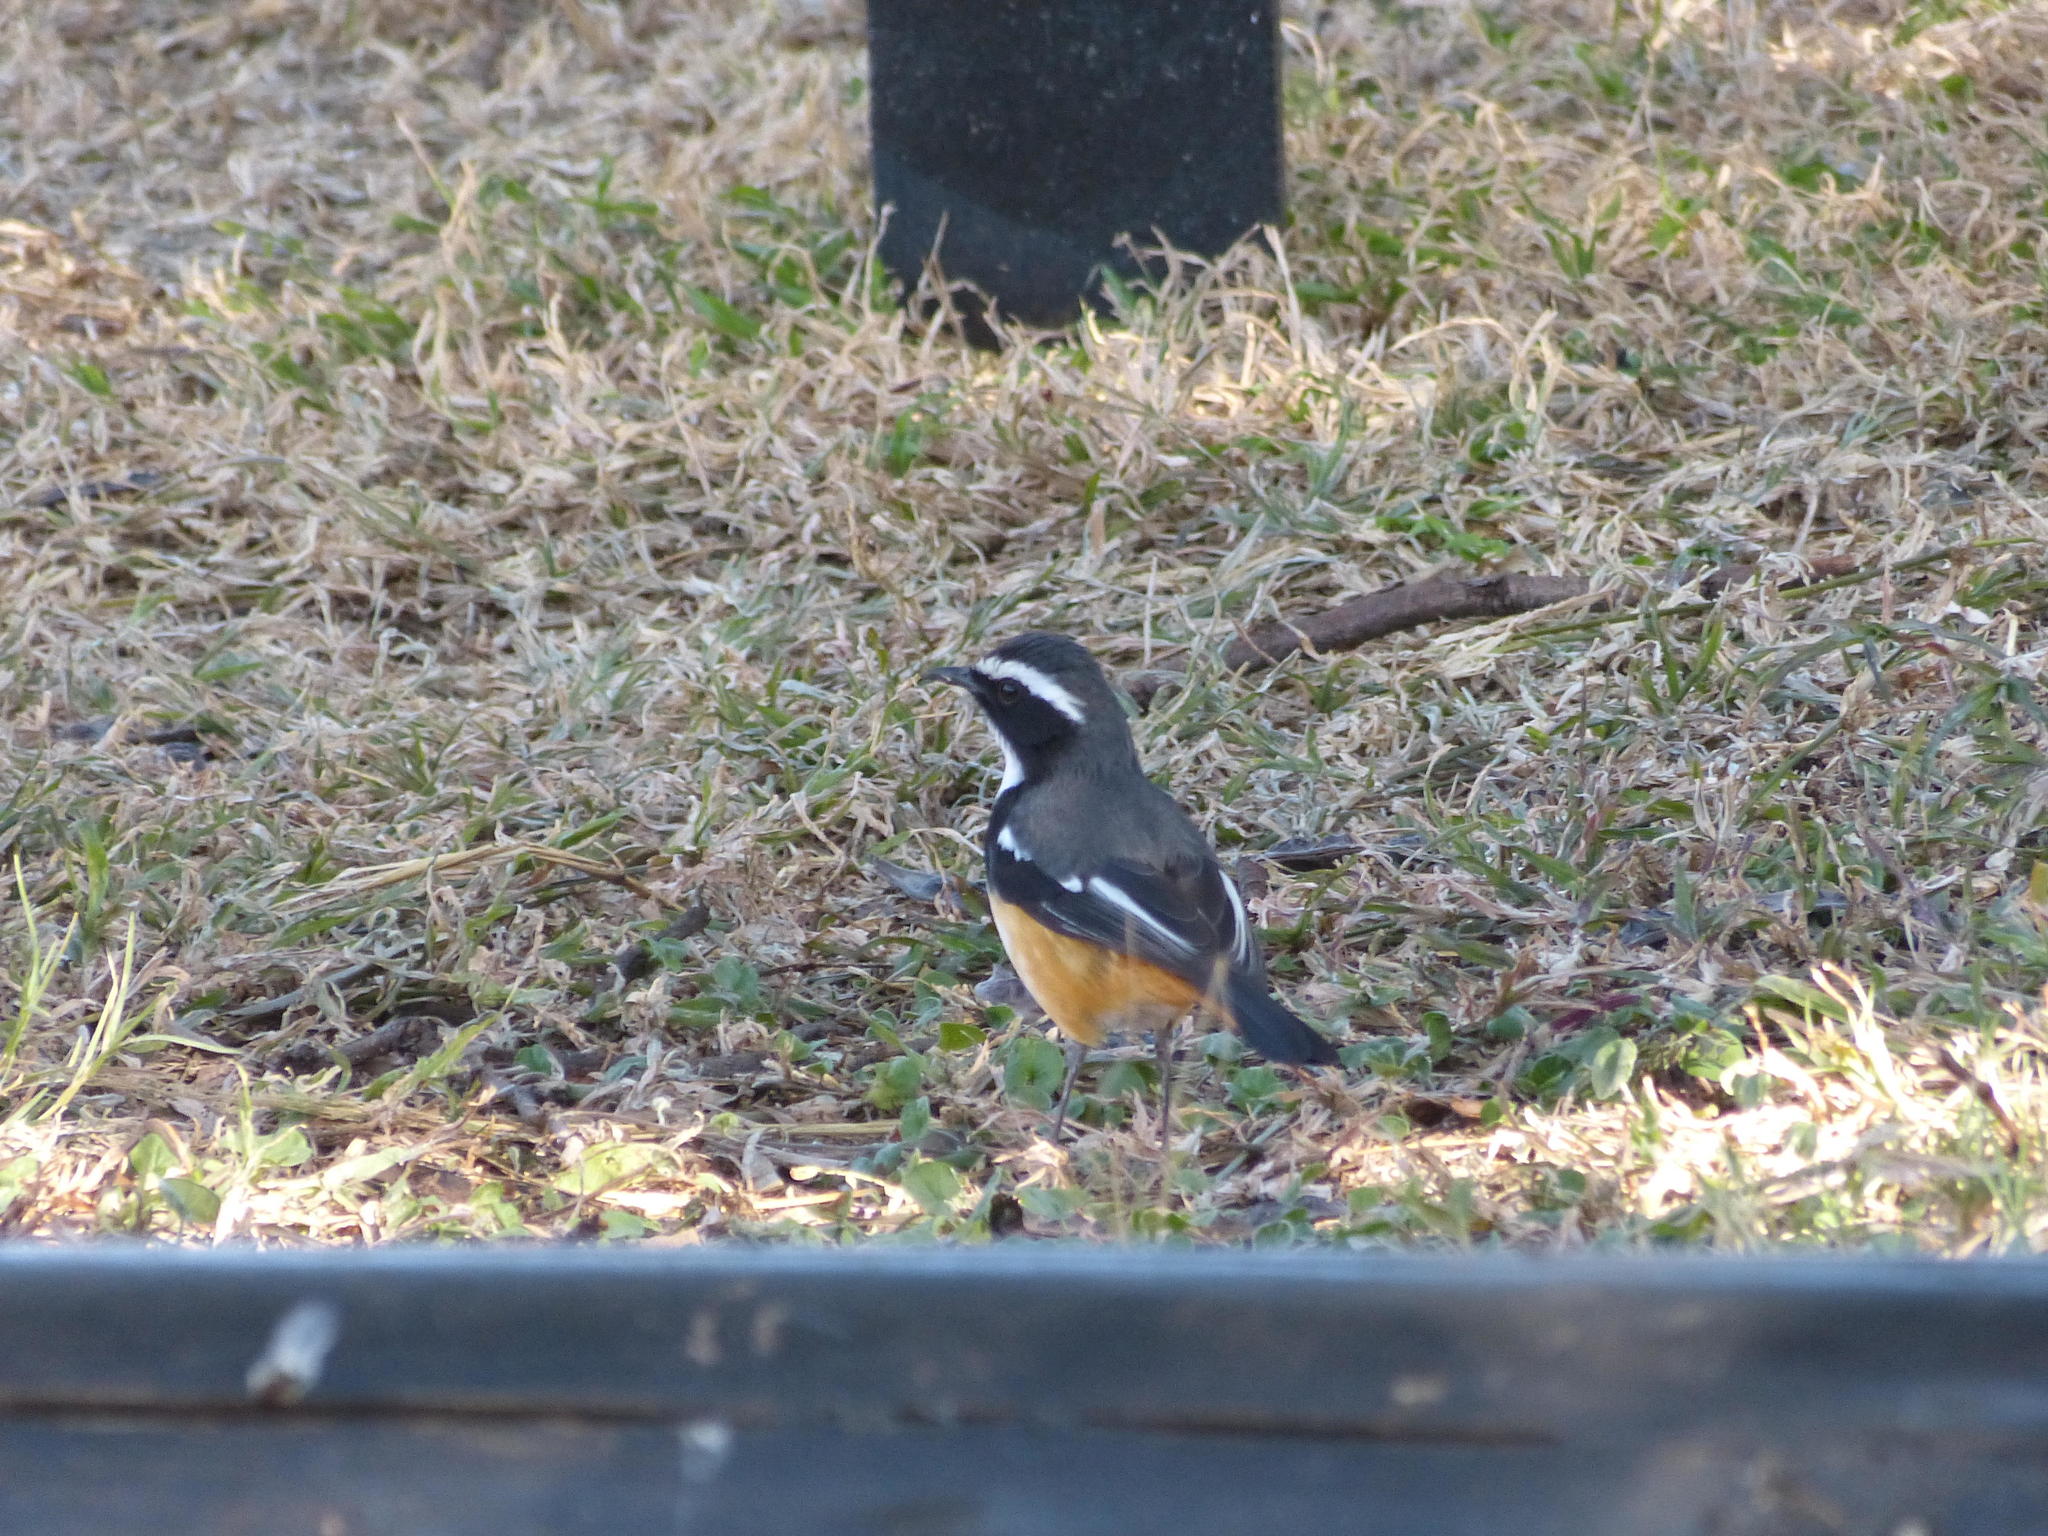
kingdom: Animalia
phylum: Chordata
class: Aves
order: Passeriformes
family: Muscicapidae
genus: Cossypha
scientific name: Cossypha humeralis
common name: White-throated robin-chat
